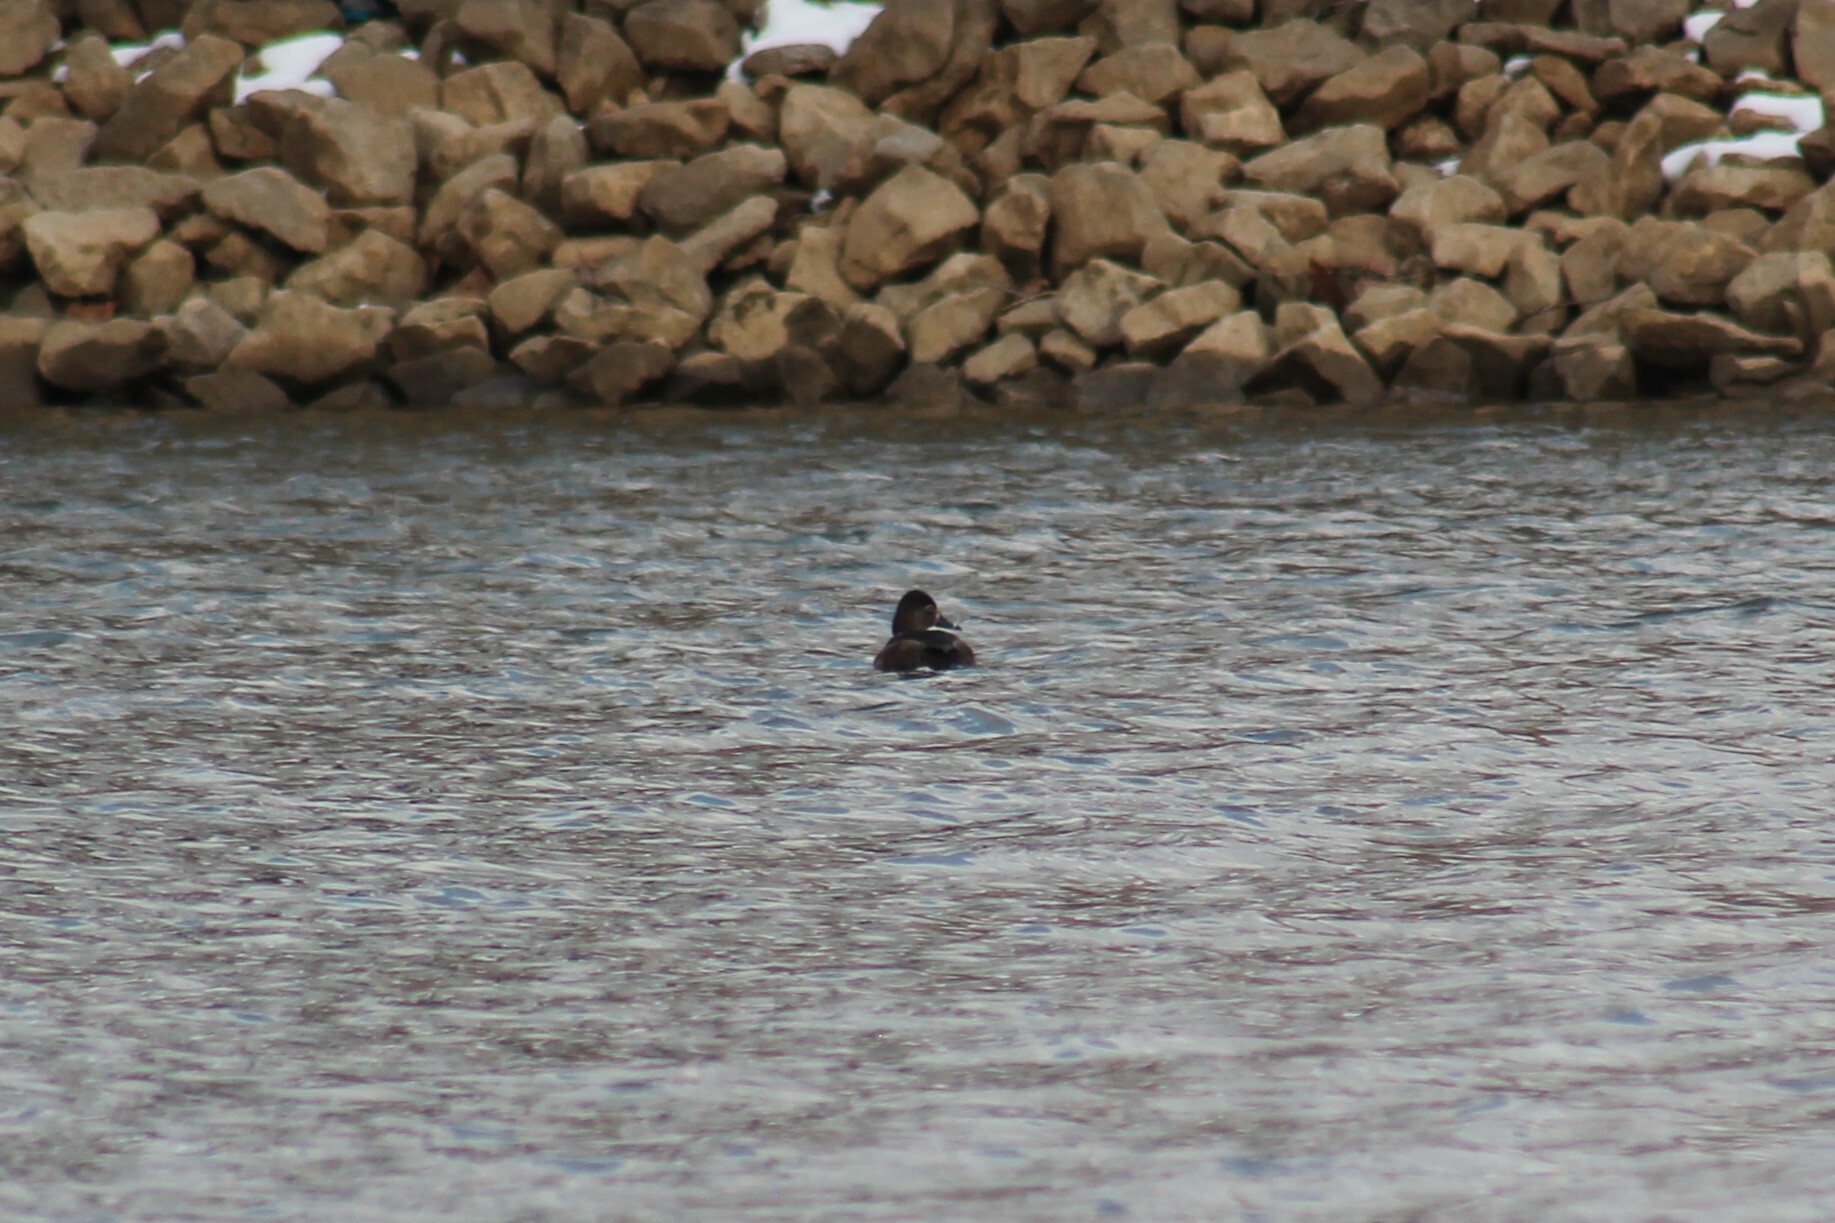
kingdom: Animalia
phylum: Chordata
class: Aves
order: Anseriformes
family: Anatidae
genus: Aythya
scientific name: Aythya collaris
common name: Ring-necked duck
